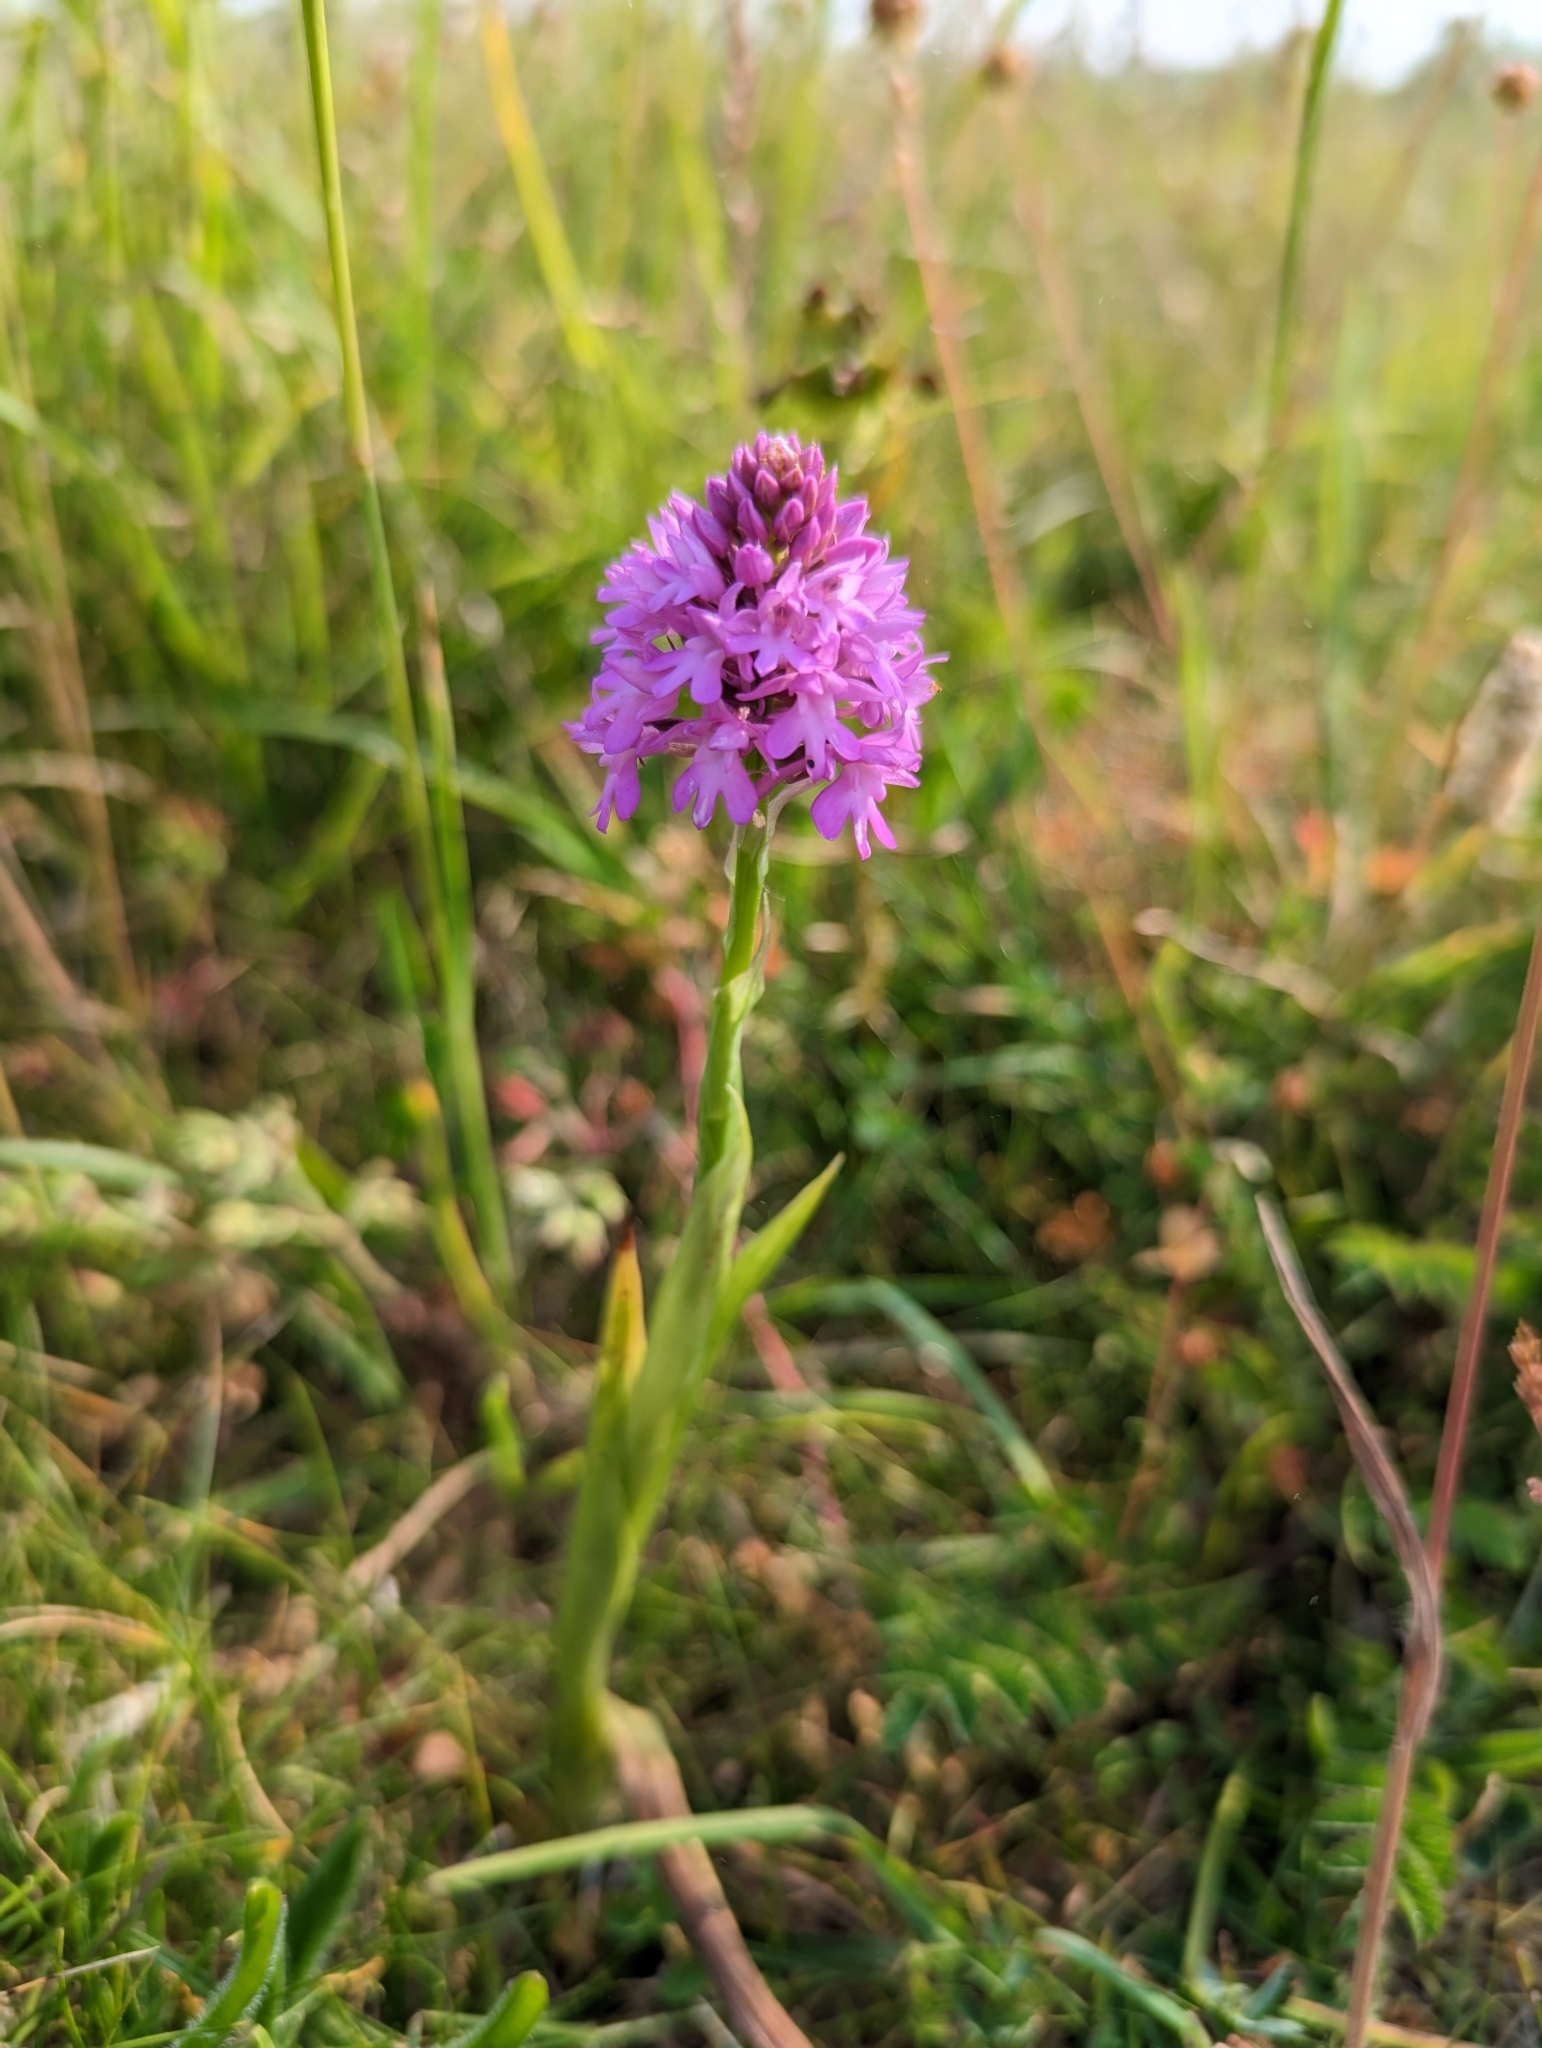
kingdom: Plantae
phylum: Tracheophyta
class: Liliopsida
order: Asparagales
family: Orchidaceae
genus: Anacamptis
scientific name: Anacamptis pyramidalis
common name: Pyramidal orchid
